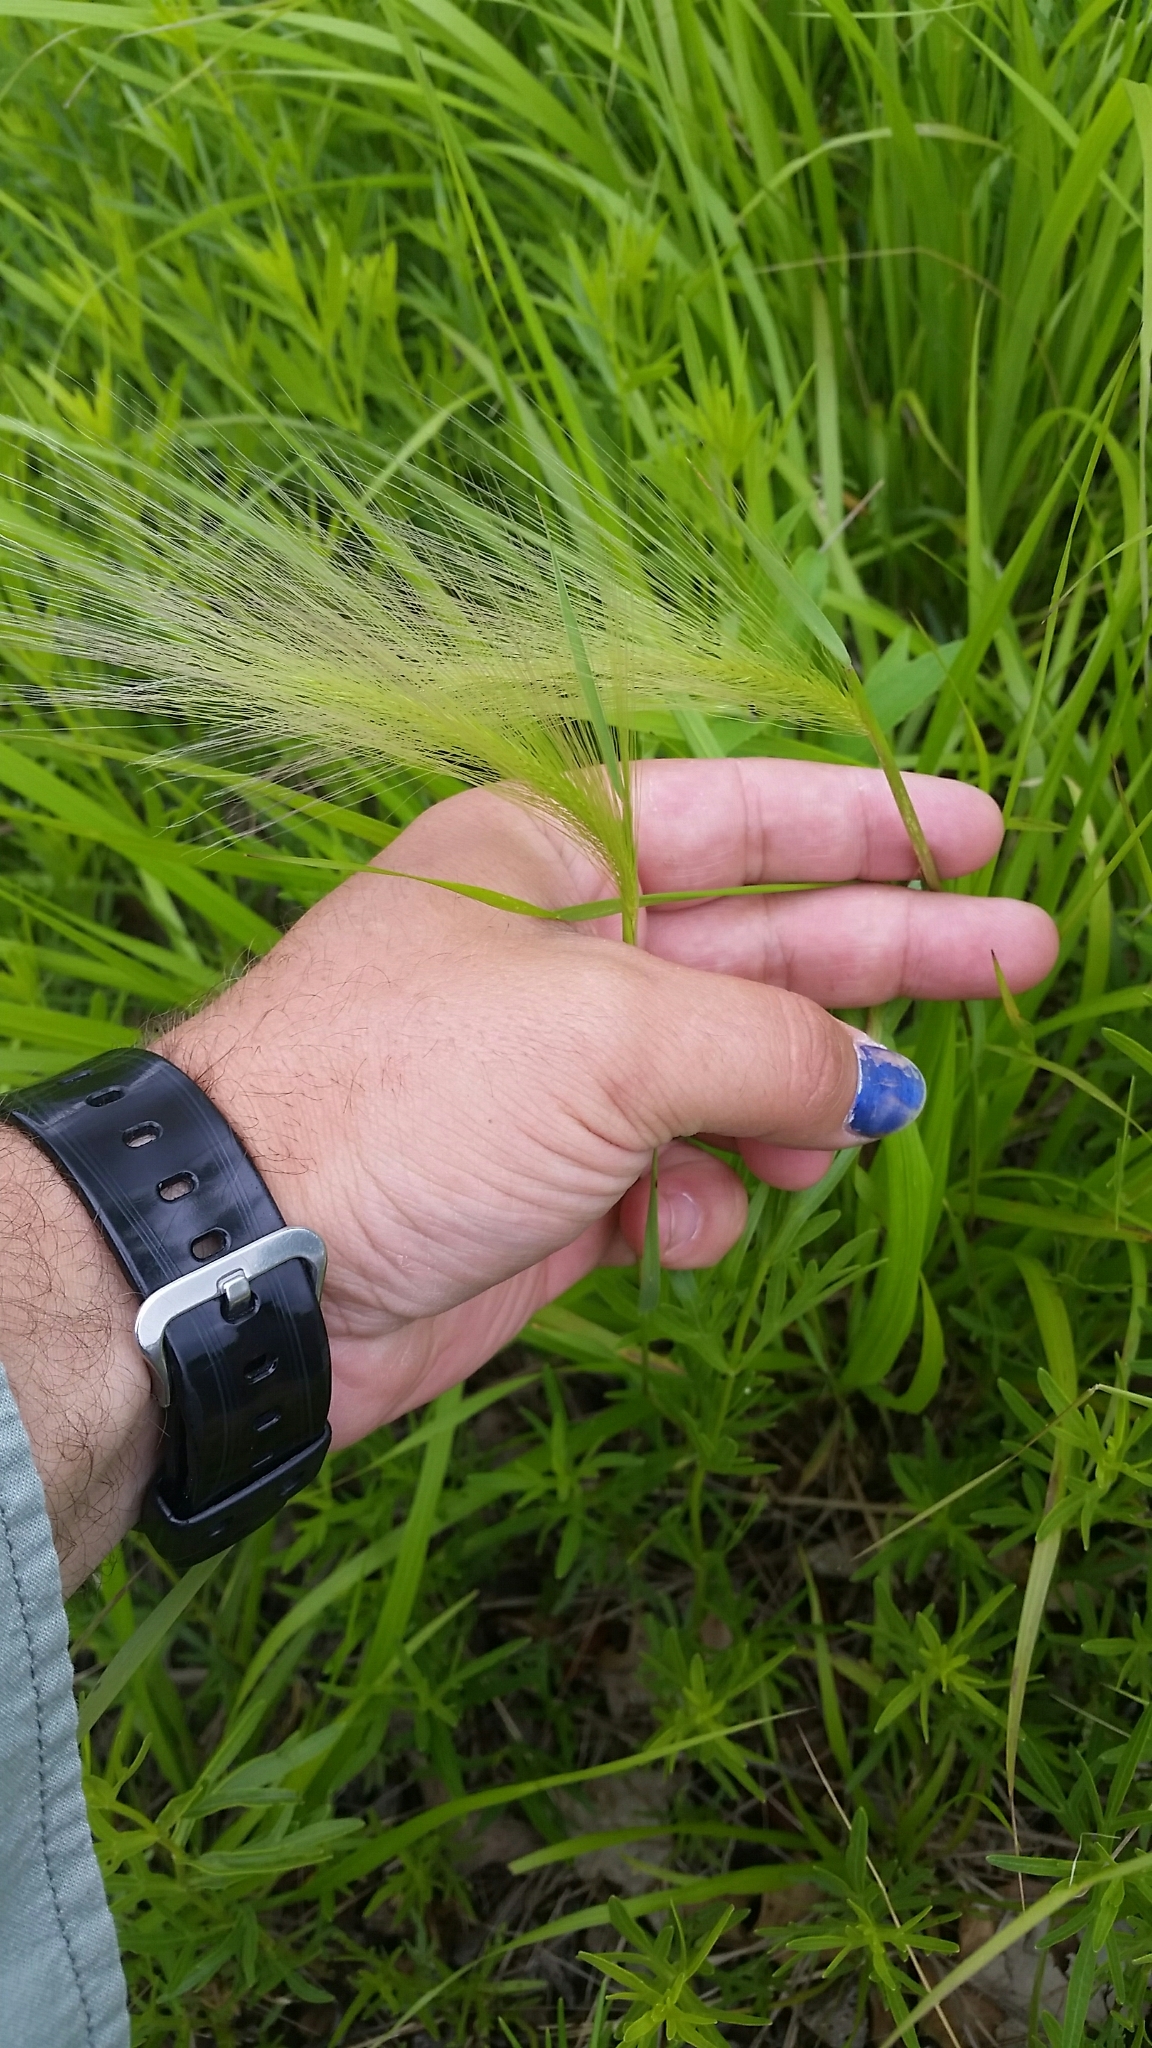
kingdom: Plantae
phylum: Tracheophyta
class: Liliopsida
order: Poales
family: Poaceae
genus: Hordeum
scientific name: Hordeum jubatum
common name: Foxtail barley
